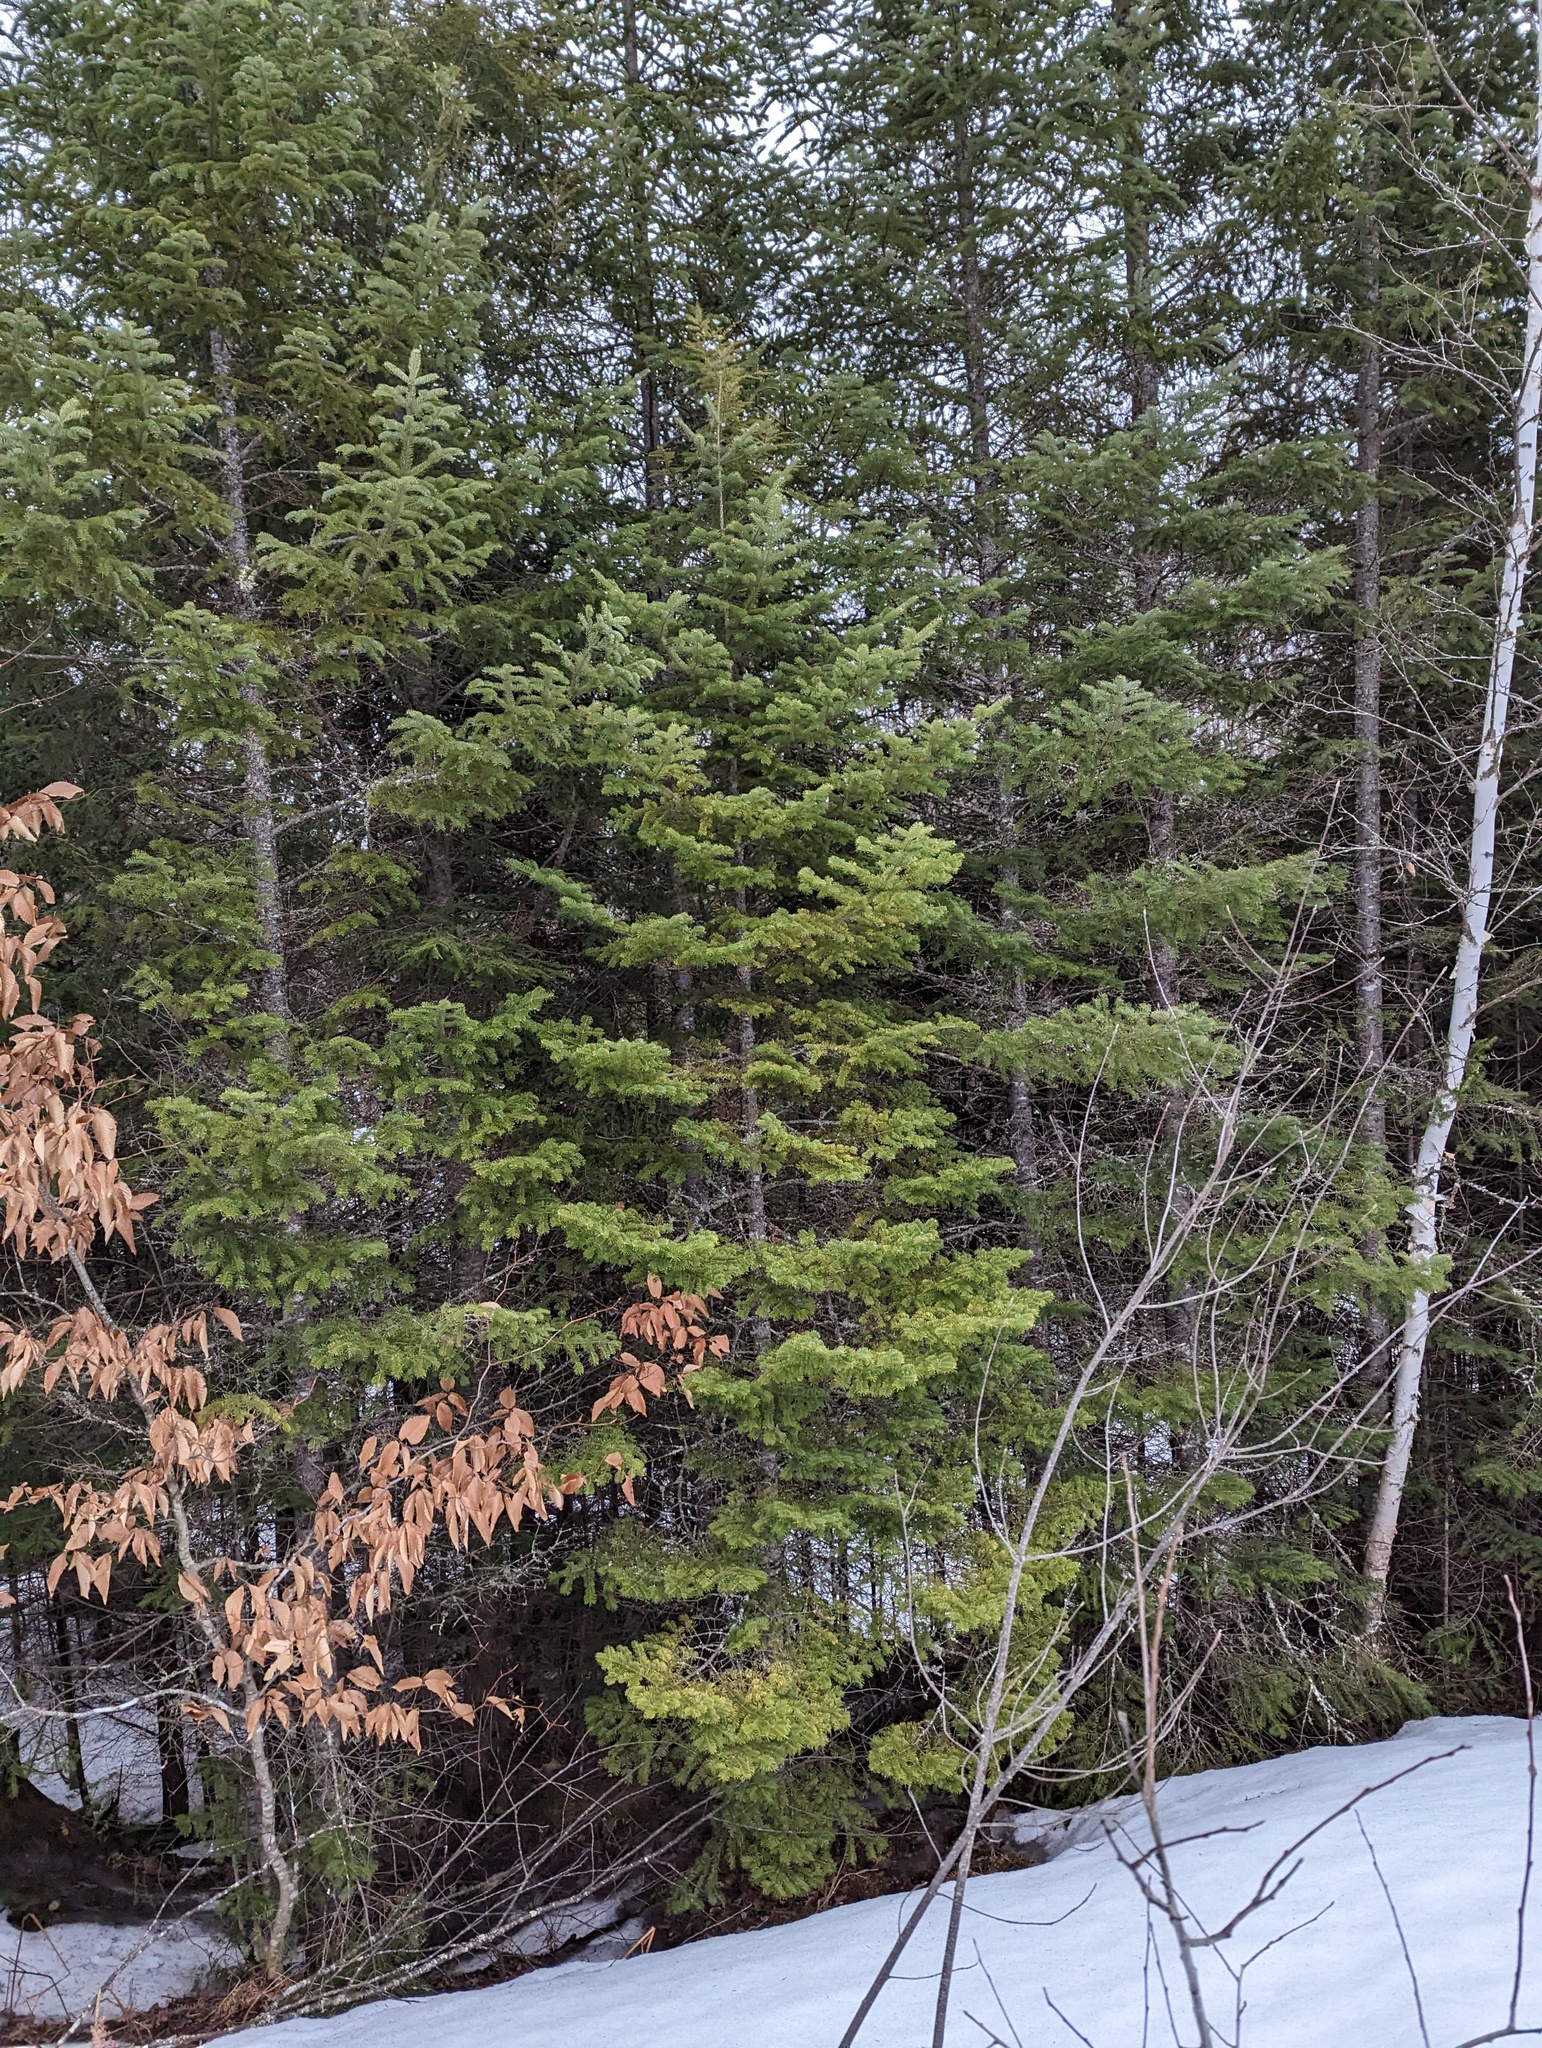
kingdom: Plantae
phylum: Tracheophyta
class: Pinopsida
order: Pinales
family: Pinaceae
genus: Abies
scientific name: Abies balsamea
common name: Balsam fir
